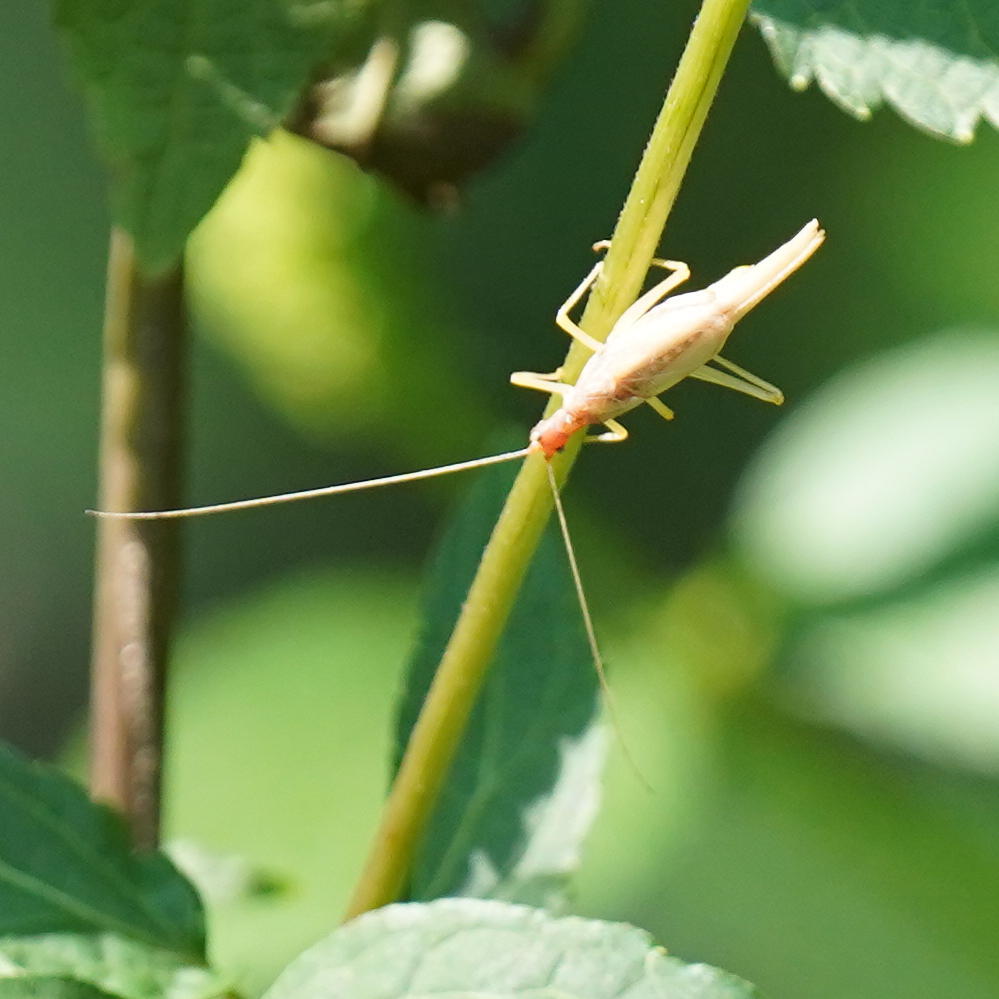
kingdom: Animalia
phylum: Arthropoda
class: Insecta
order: Orthoptera
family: Gryllidae
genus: Neoxabea
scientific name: Neoxabea bipunctata
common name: Two-spotted tree cricket
